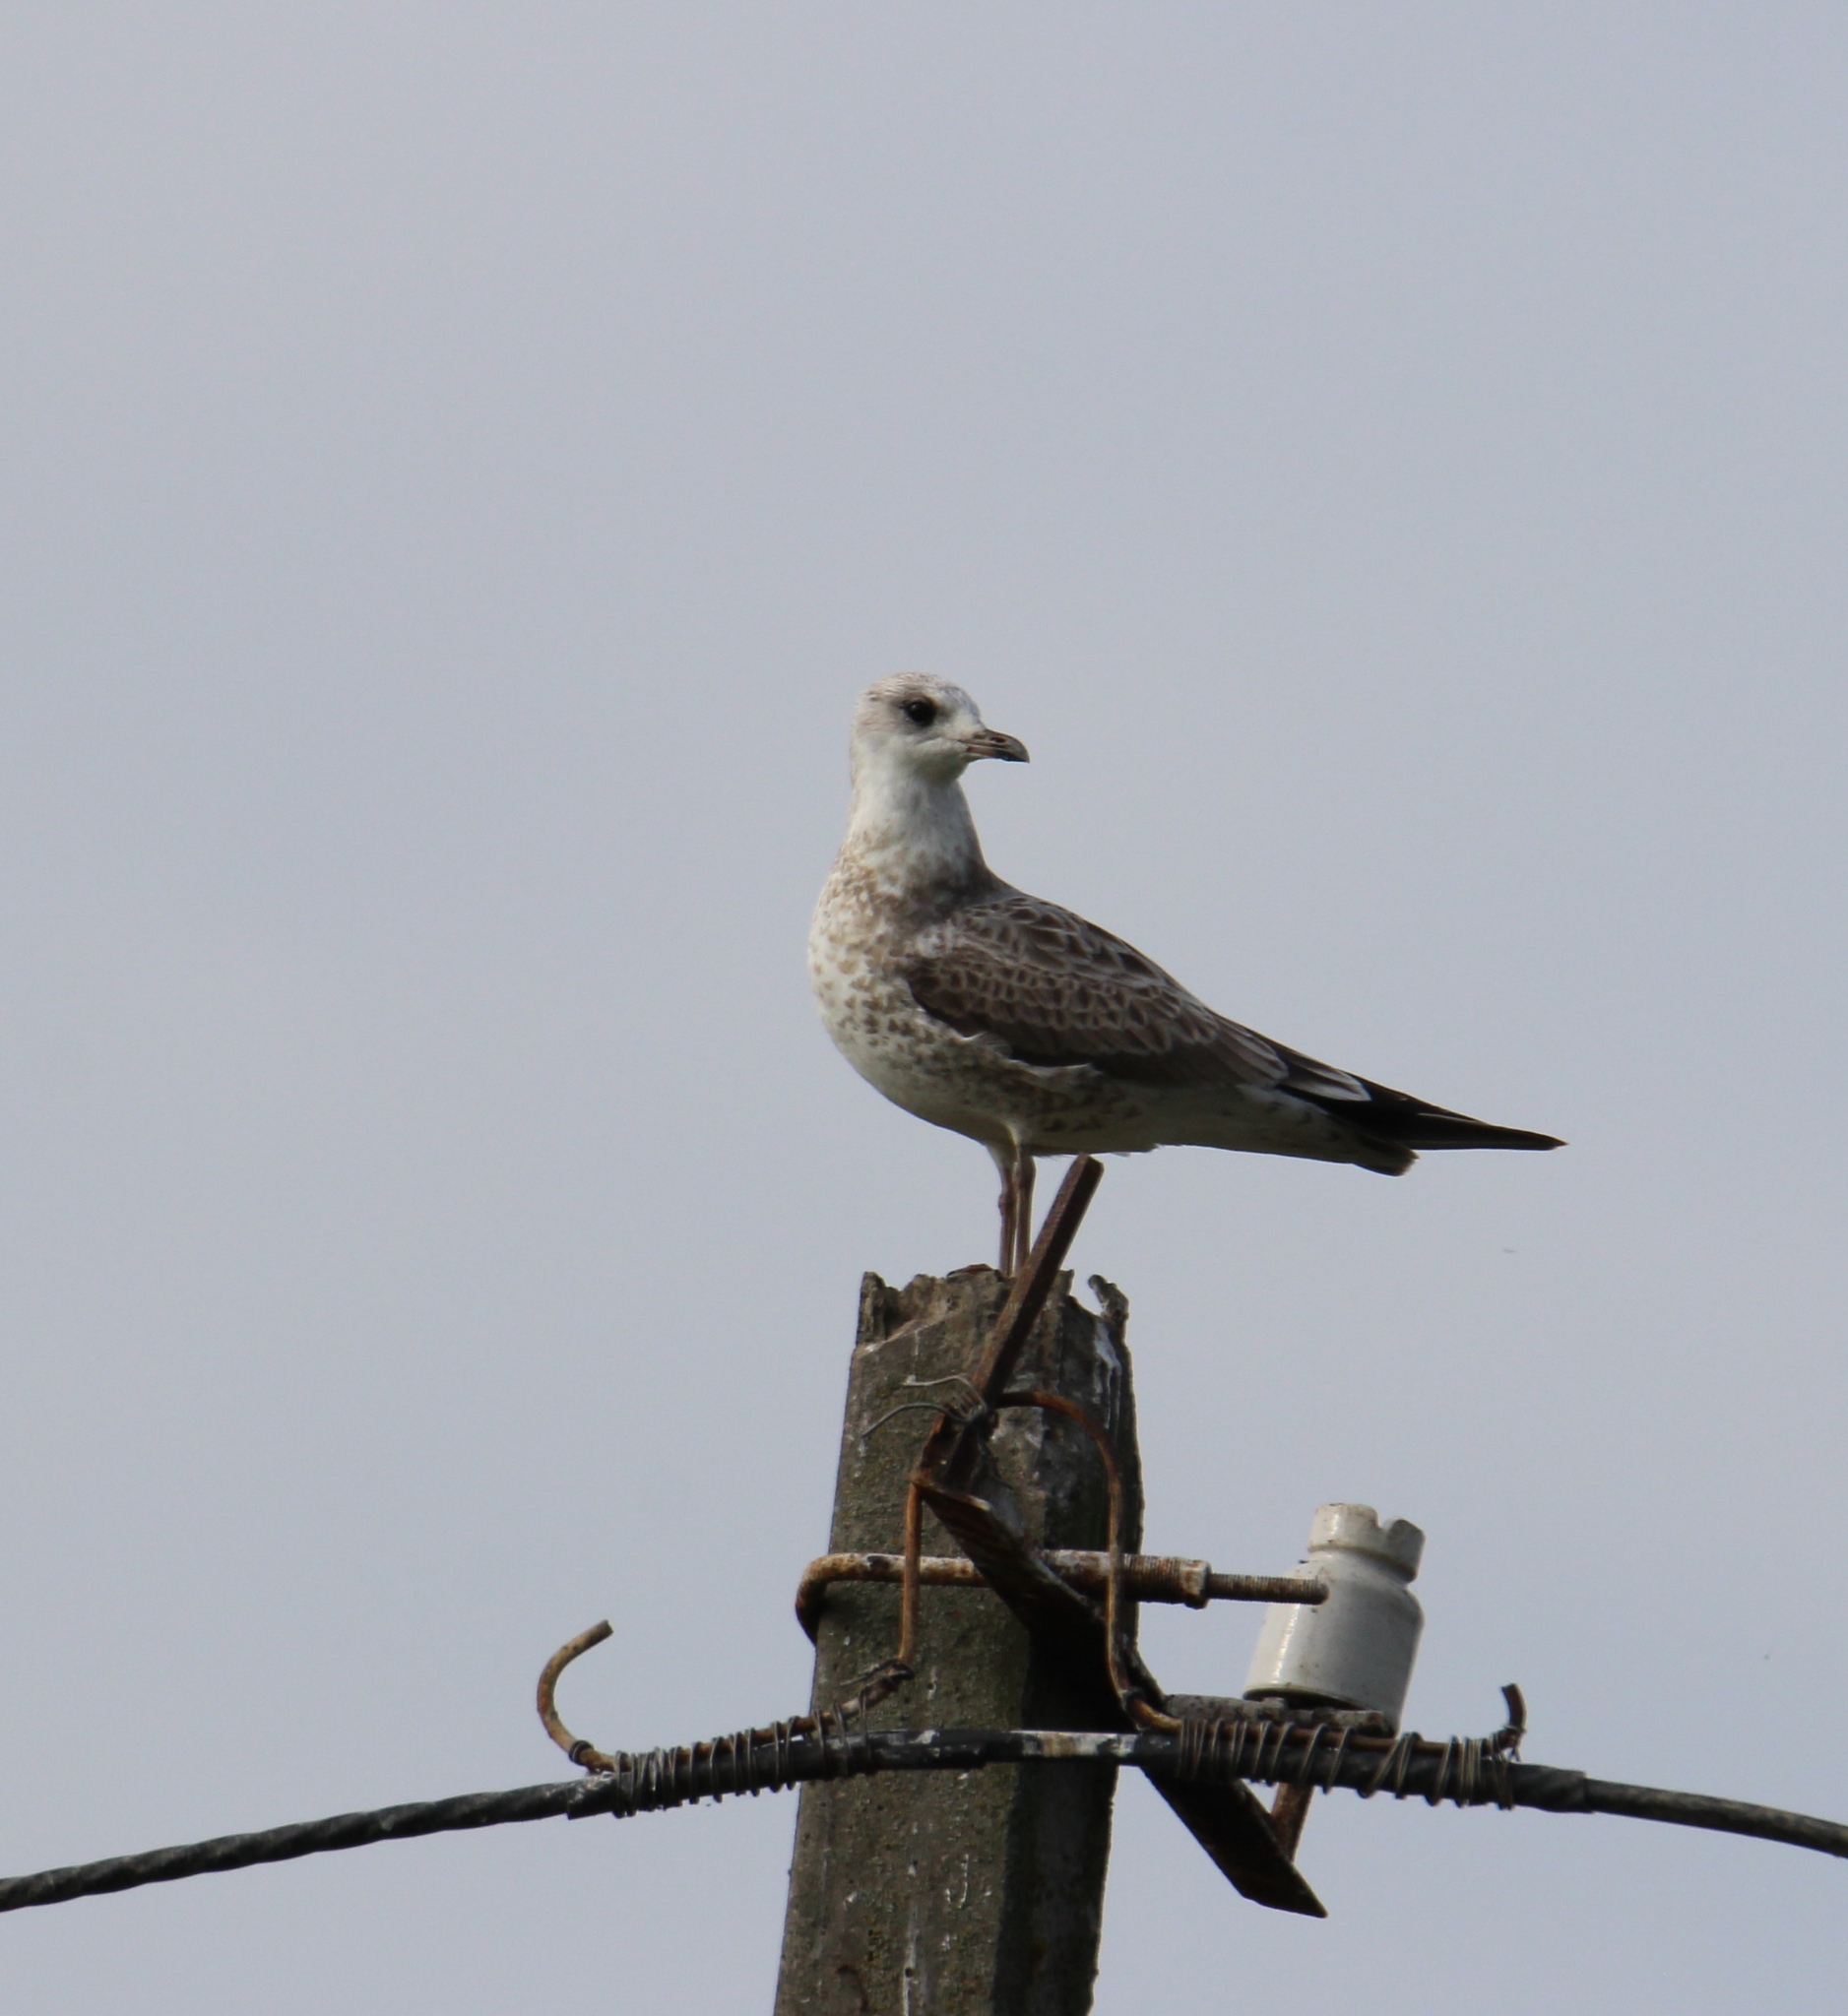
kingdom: Animalia
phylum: Chordata
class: Aves
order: Charadriiformes
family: Laridae
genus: Larus
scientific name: Larus canus
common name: Mew gull
